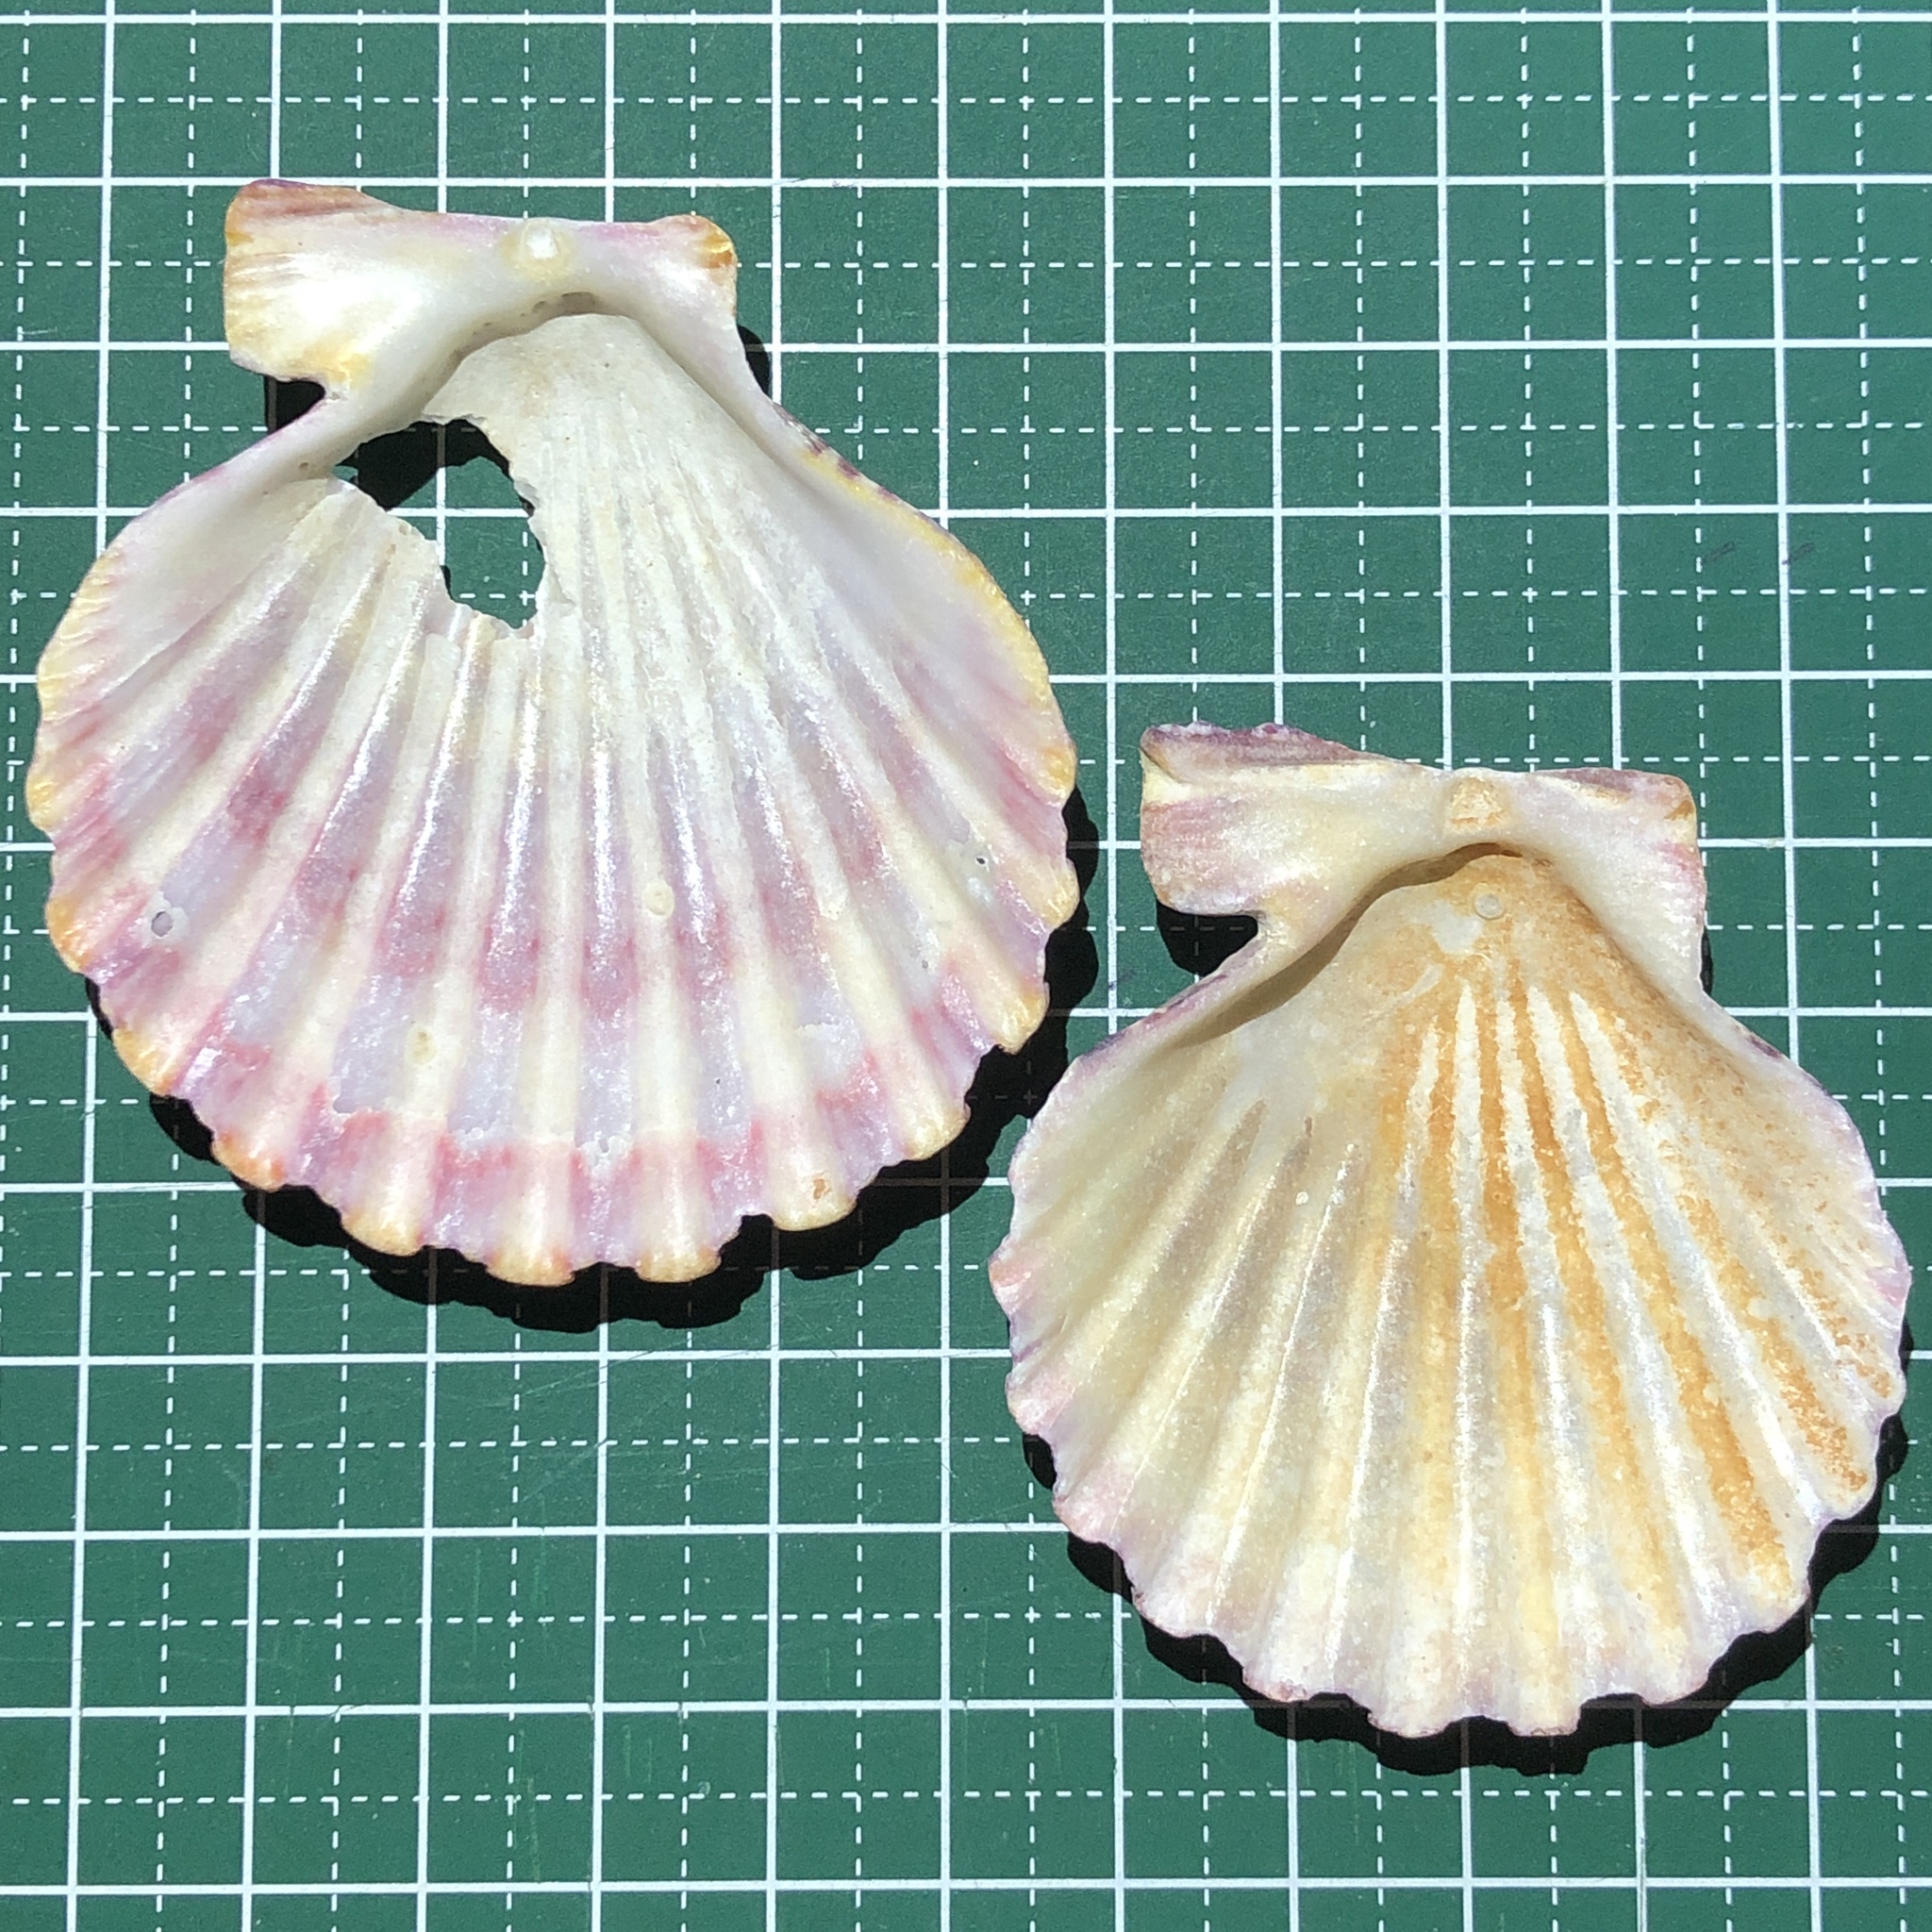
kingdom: Animalia
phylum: Mollusca
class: Bivalvia
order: Pectinida
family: Pectinidae
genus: Gloripallium
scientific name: Gloripallium pallium
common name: Royal cloak scallop
